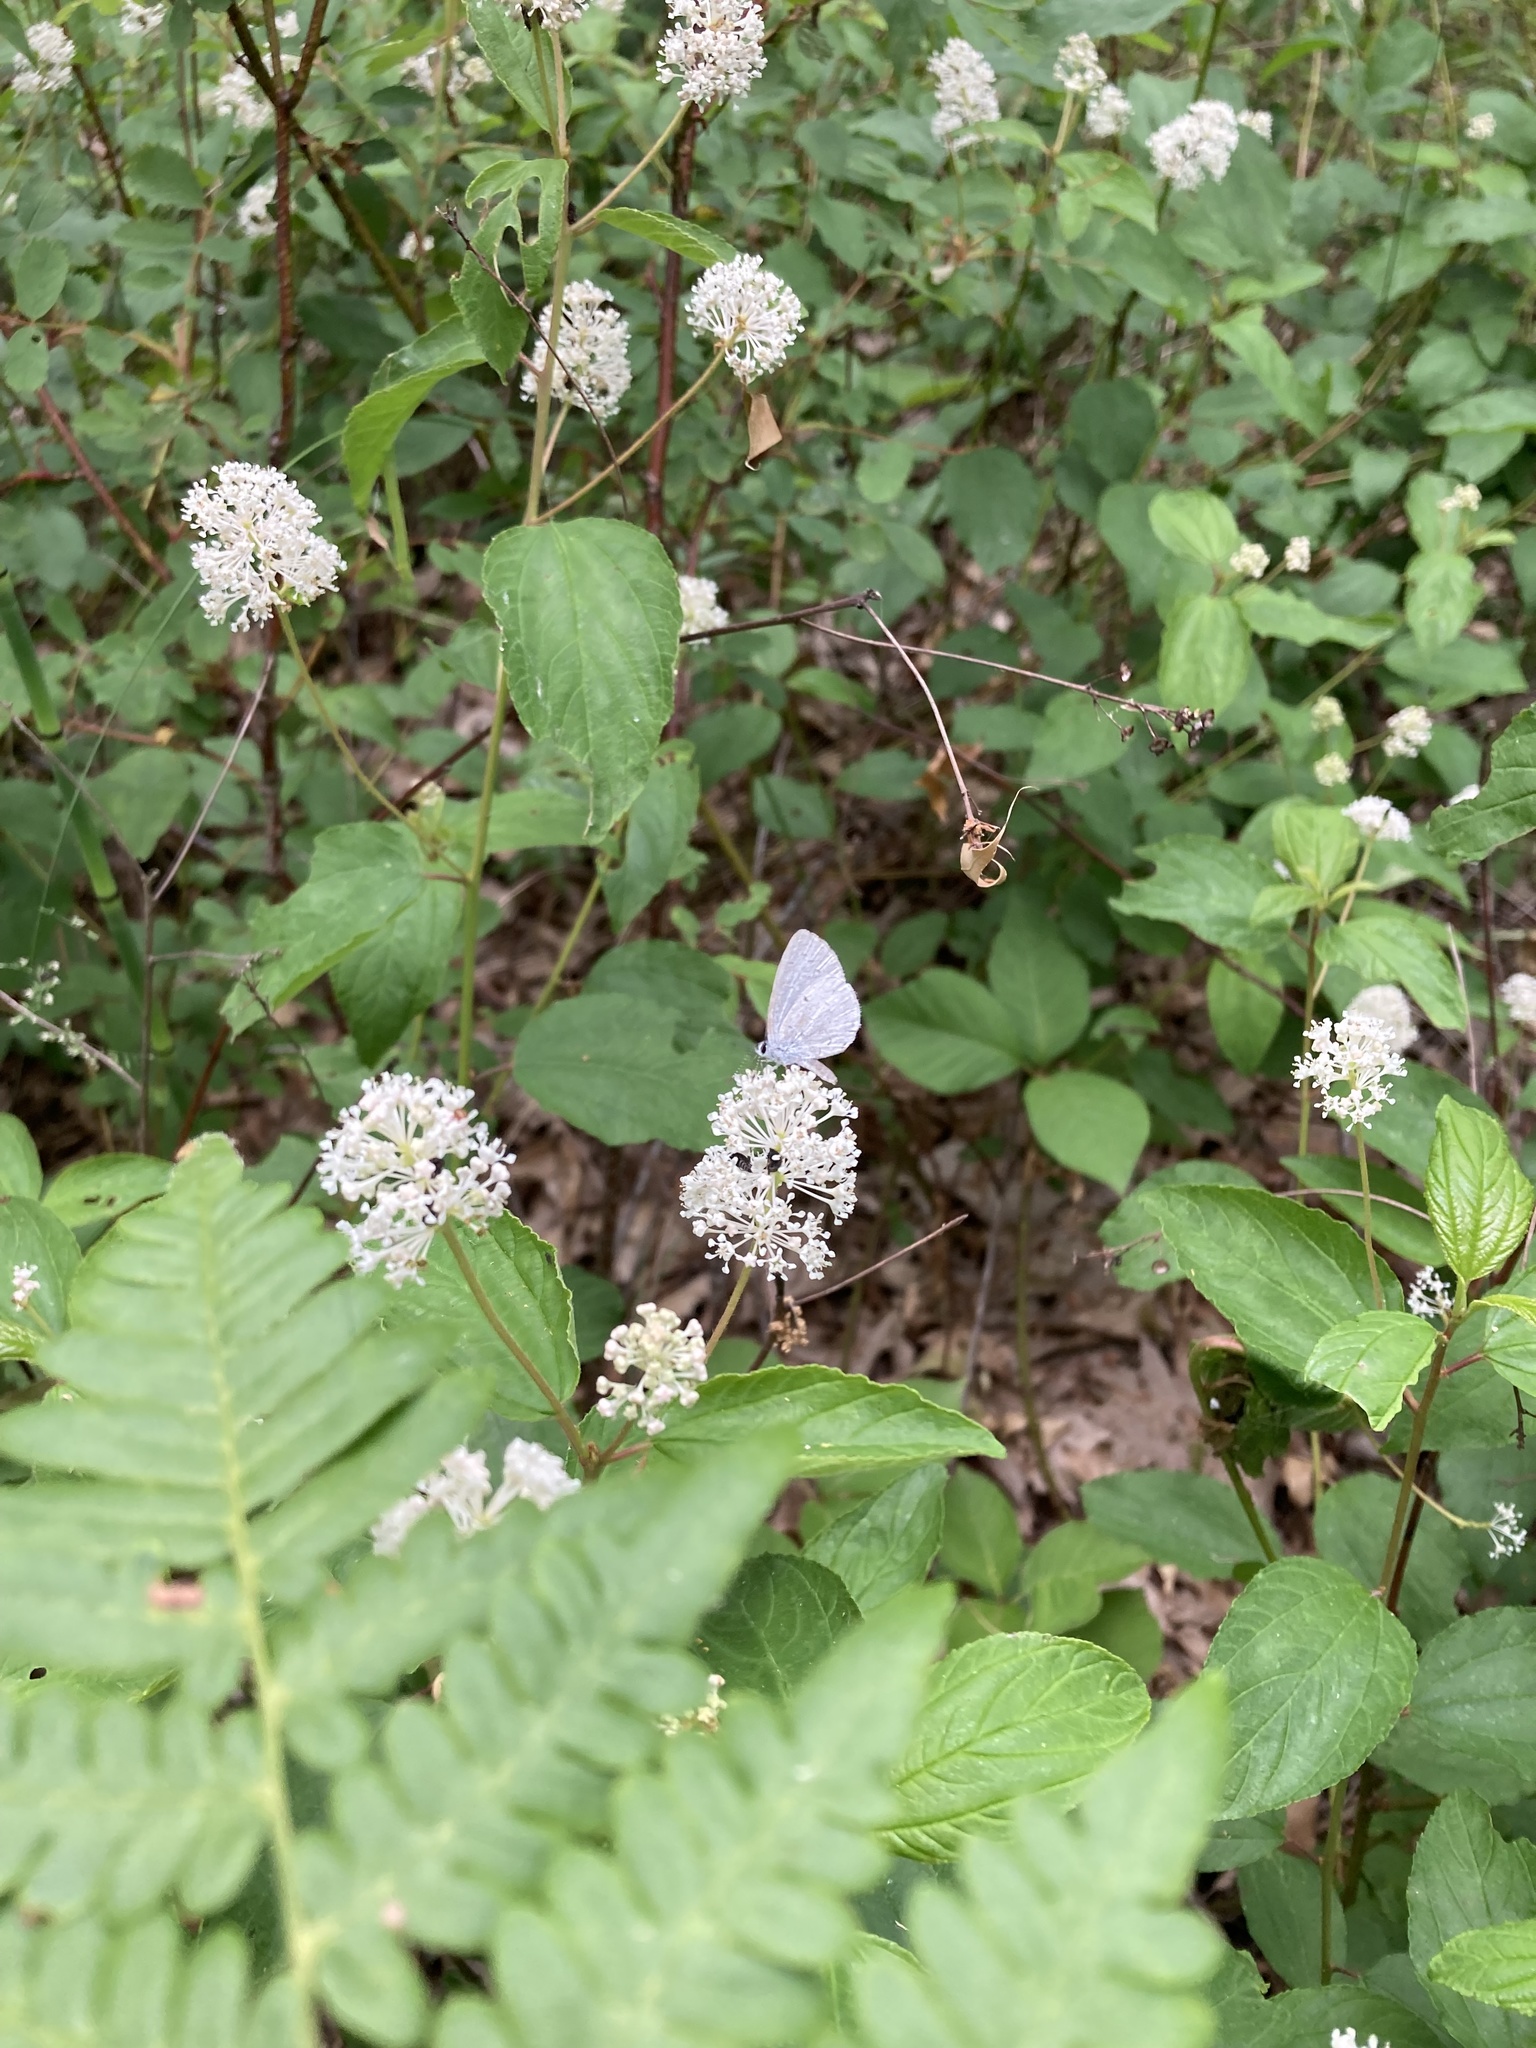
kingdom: Animalia
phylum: Arthropoda
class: Insecta
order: Lepidoptera
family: Lycaenidae
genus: Celastrina
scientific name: Celastrina
